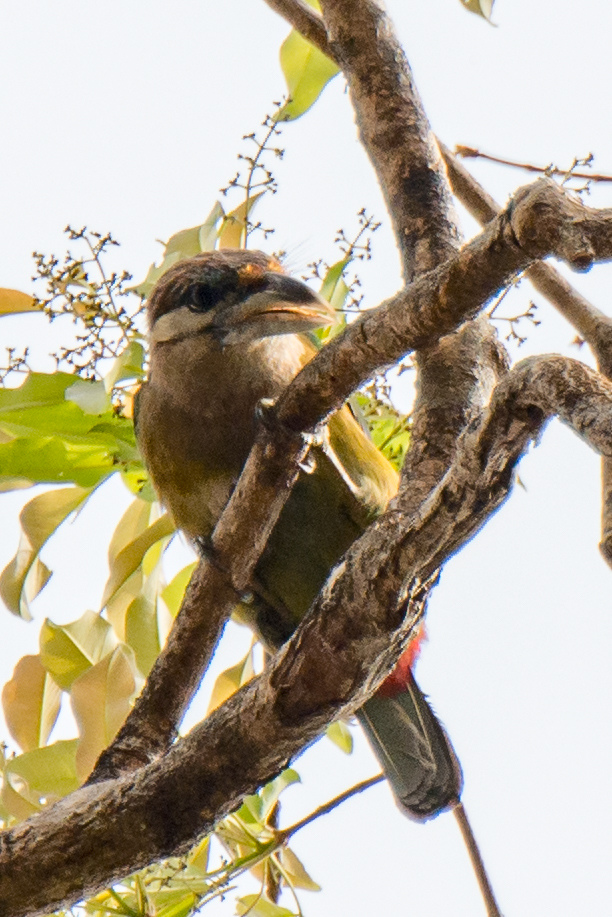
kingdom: Animalia
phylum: Chordata
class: Aves
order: Piciformes
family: Megalaimidae
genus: Psilopogon
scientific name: Psilopogon lagrandieri
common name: Red-vented barbet
